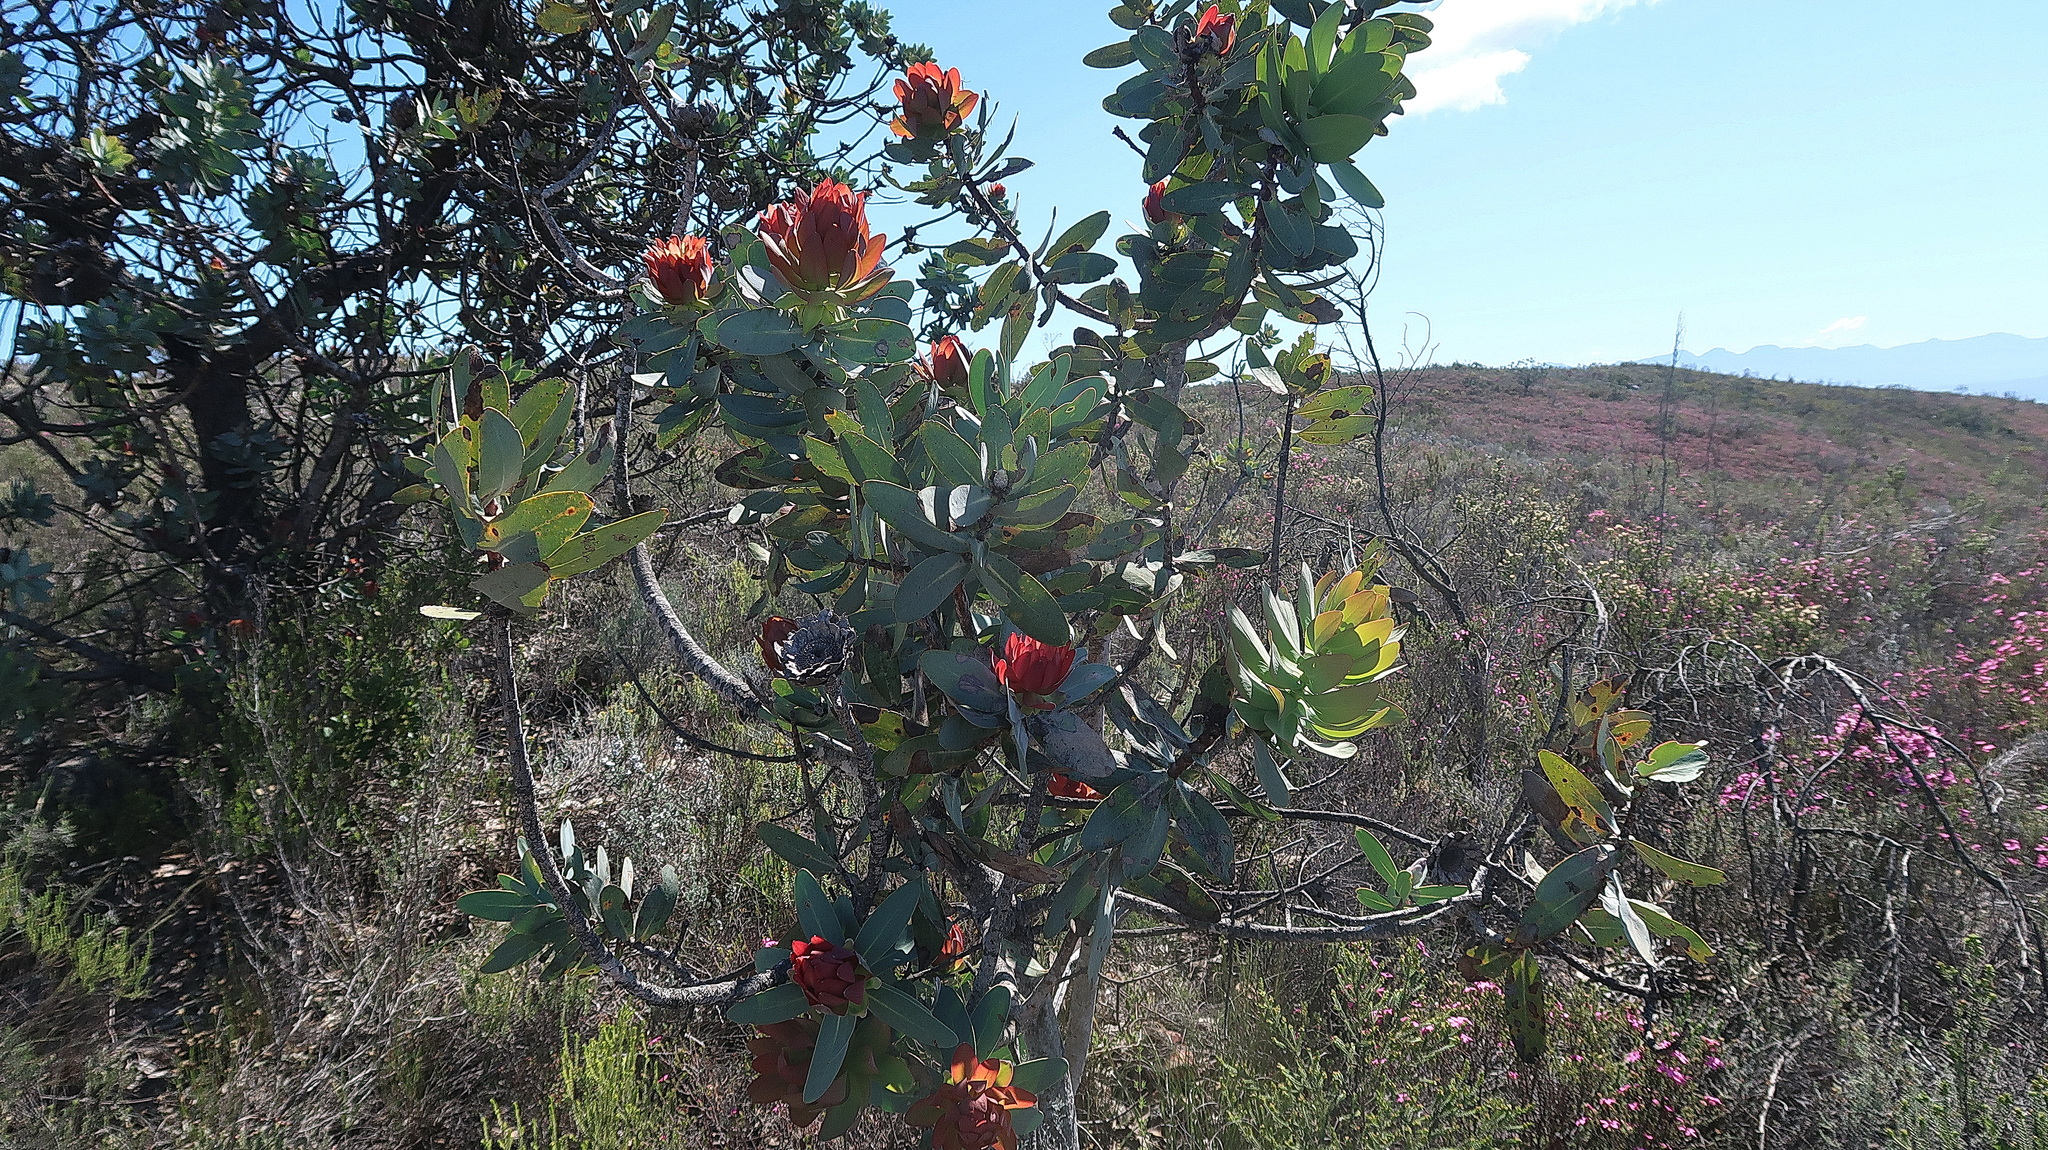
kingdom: Plantae
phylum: Tracheophyta
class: Magnoliopsida
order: Proteales
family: Proteaceae
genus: Protea
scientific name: Protea nitida
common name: Tree protea
